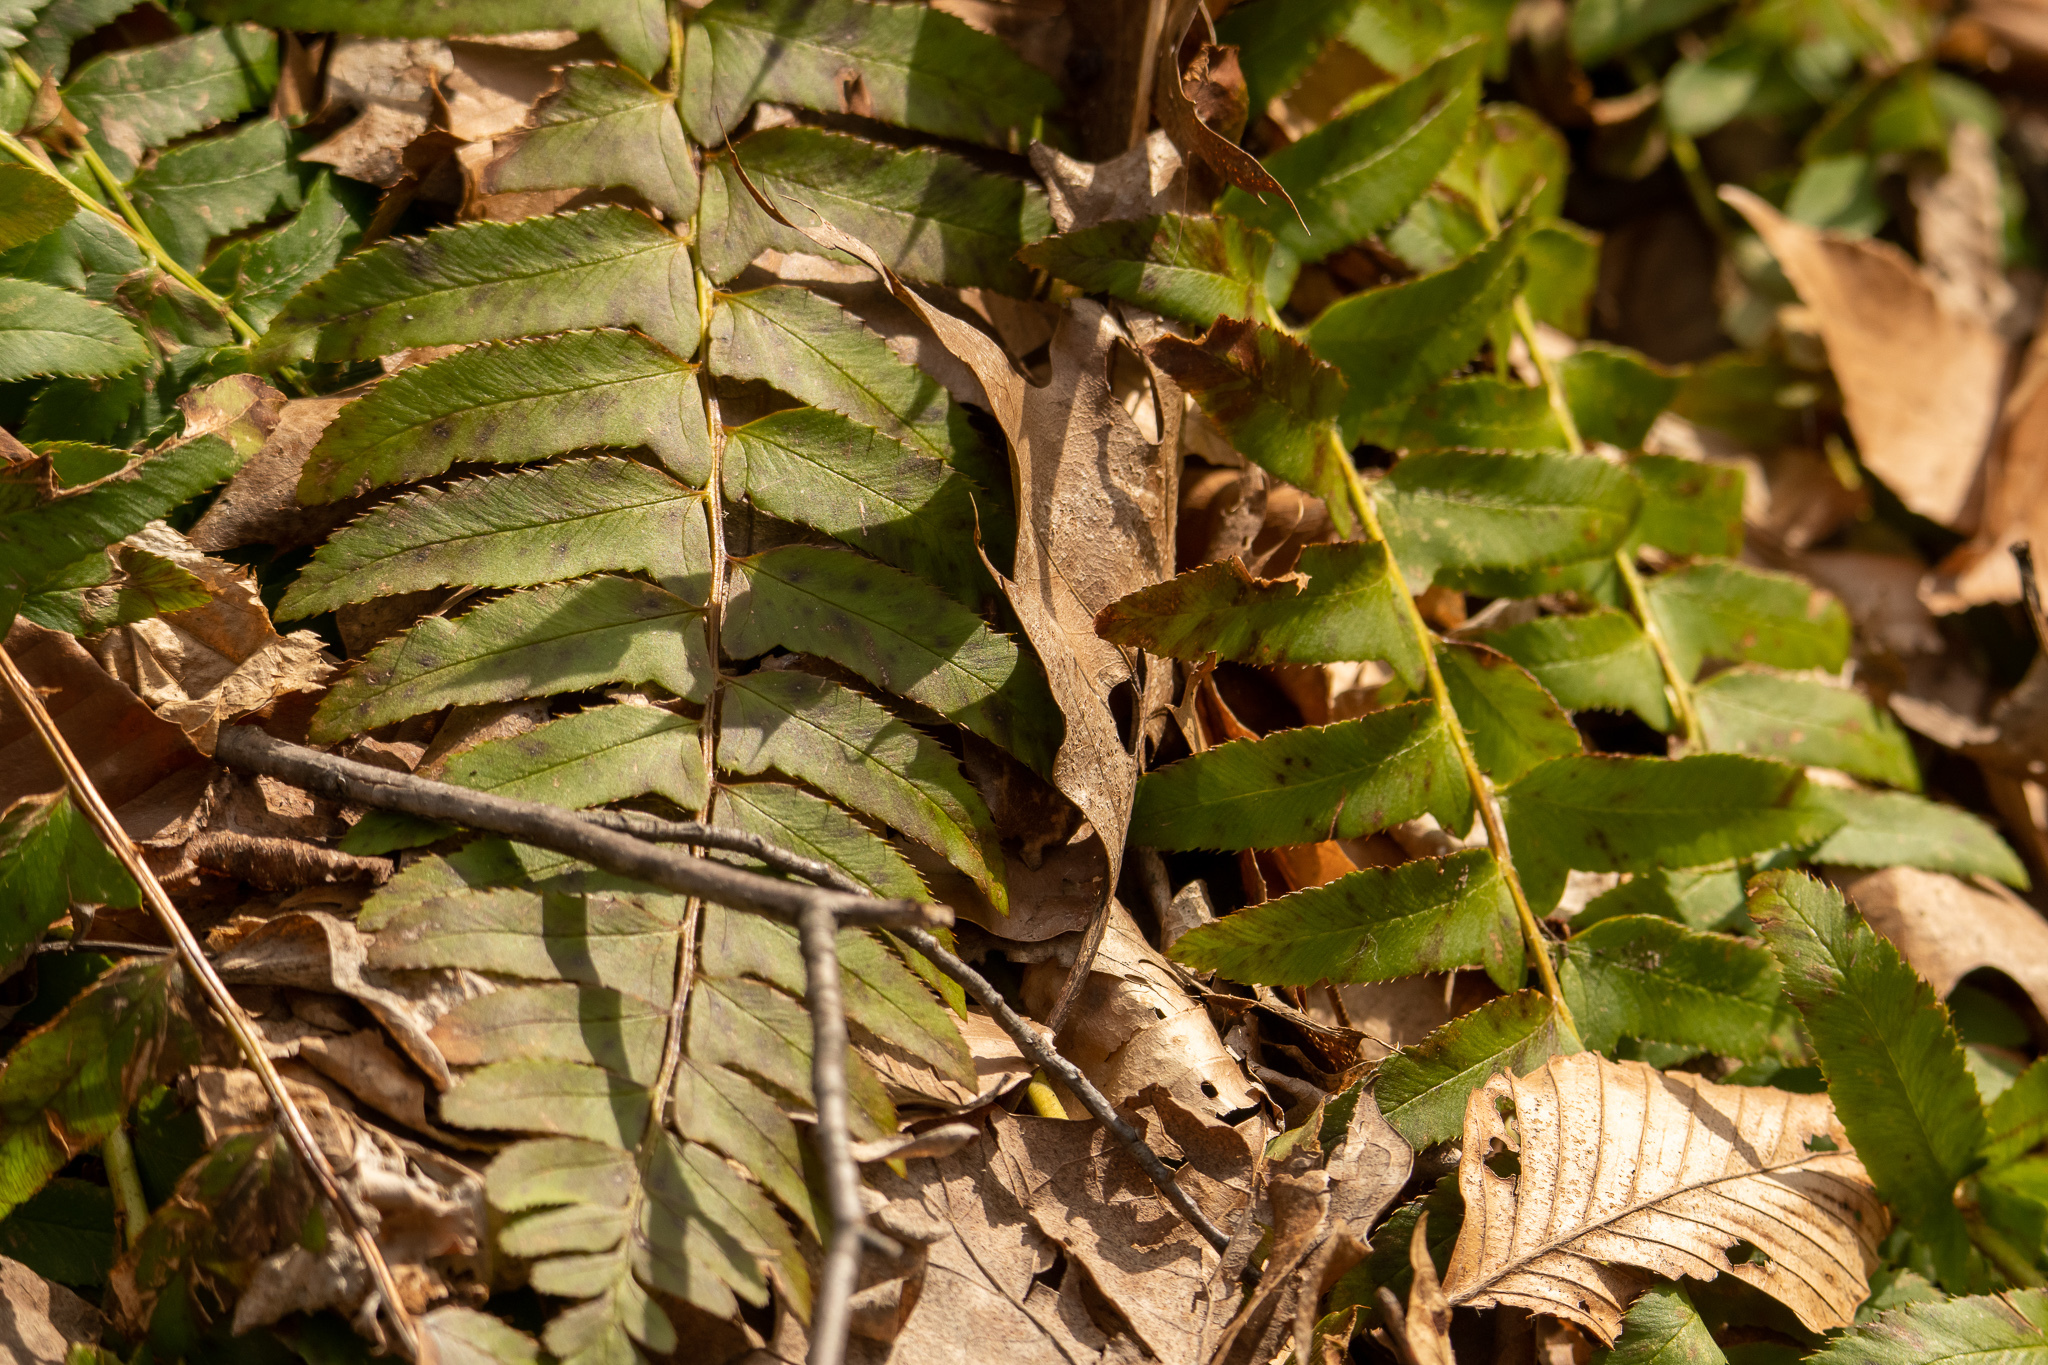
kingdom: Plantae
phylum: Tracheophyta
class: Polypodiopsida
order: Polypodiales
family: Dryopteridaceae
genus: Polystichum
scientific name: Polystichum acrostichoides
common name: Christmas fern
